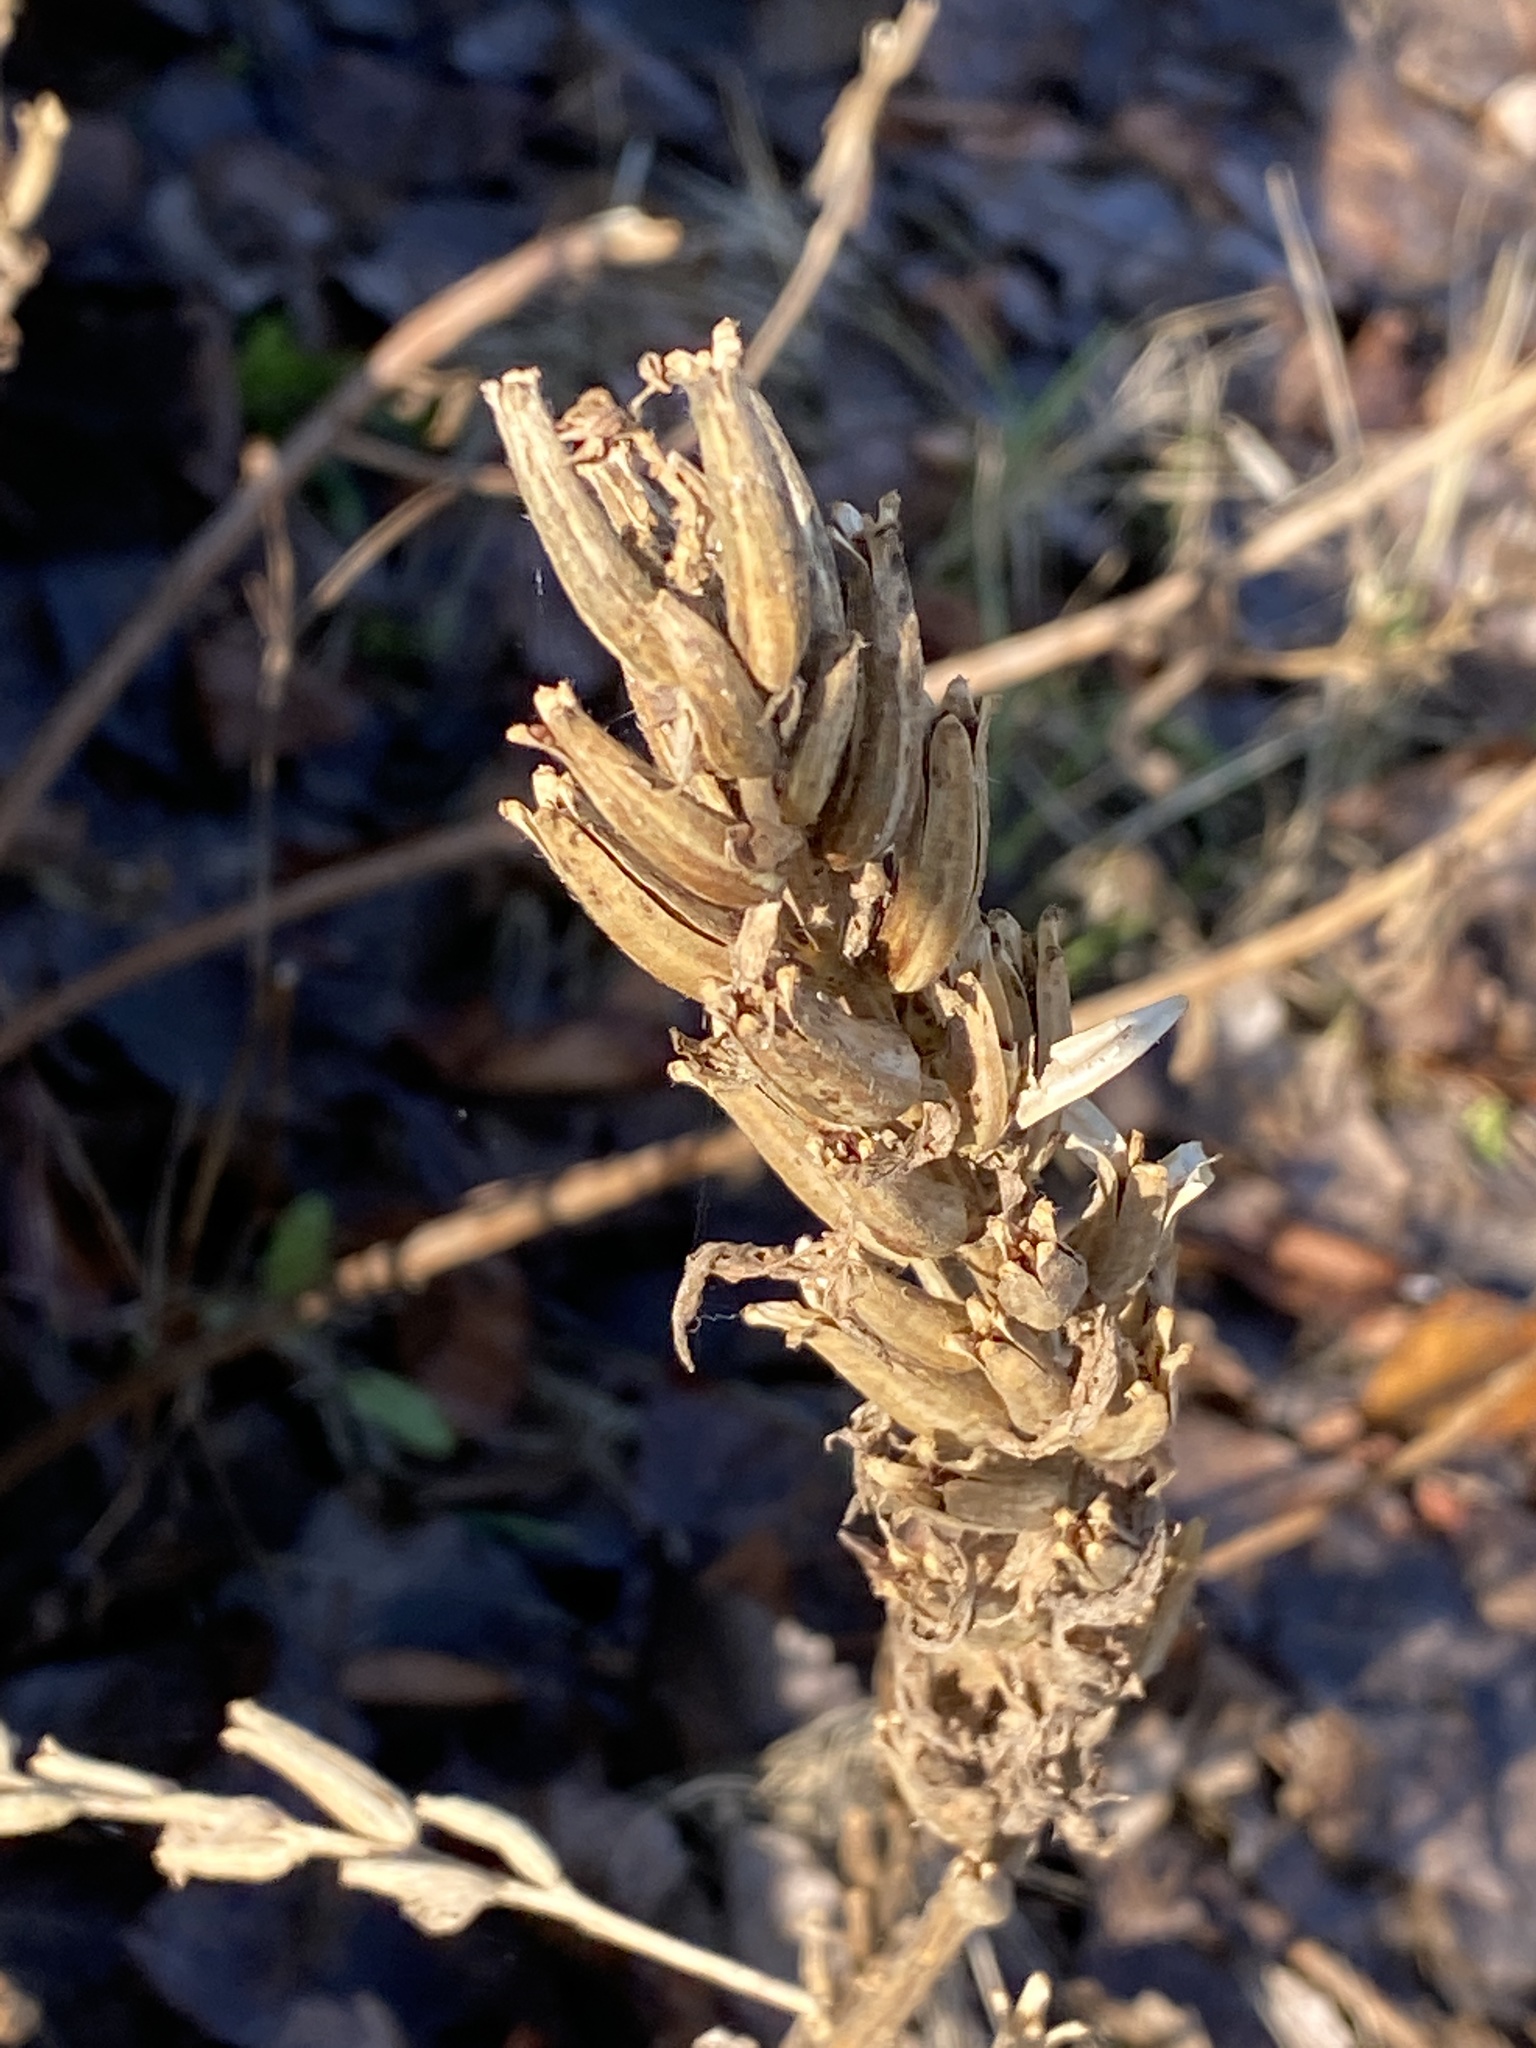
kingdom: Plantae
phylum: Tracheophyta
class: Magnoliopsida
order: Myrtales
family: Onagraceae
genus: Oenothera
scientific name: Oenothera biennis
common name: Common evening-primrose
